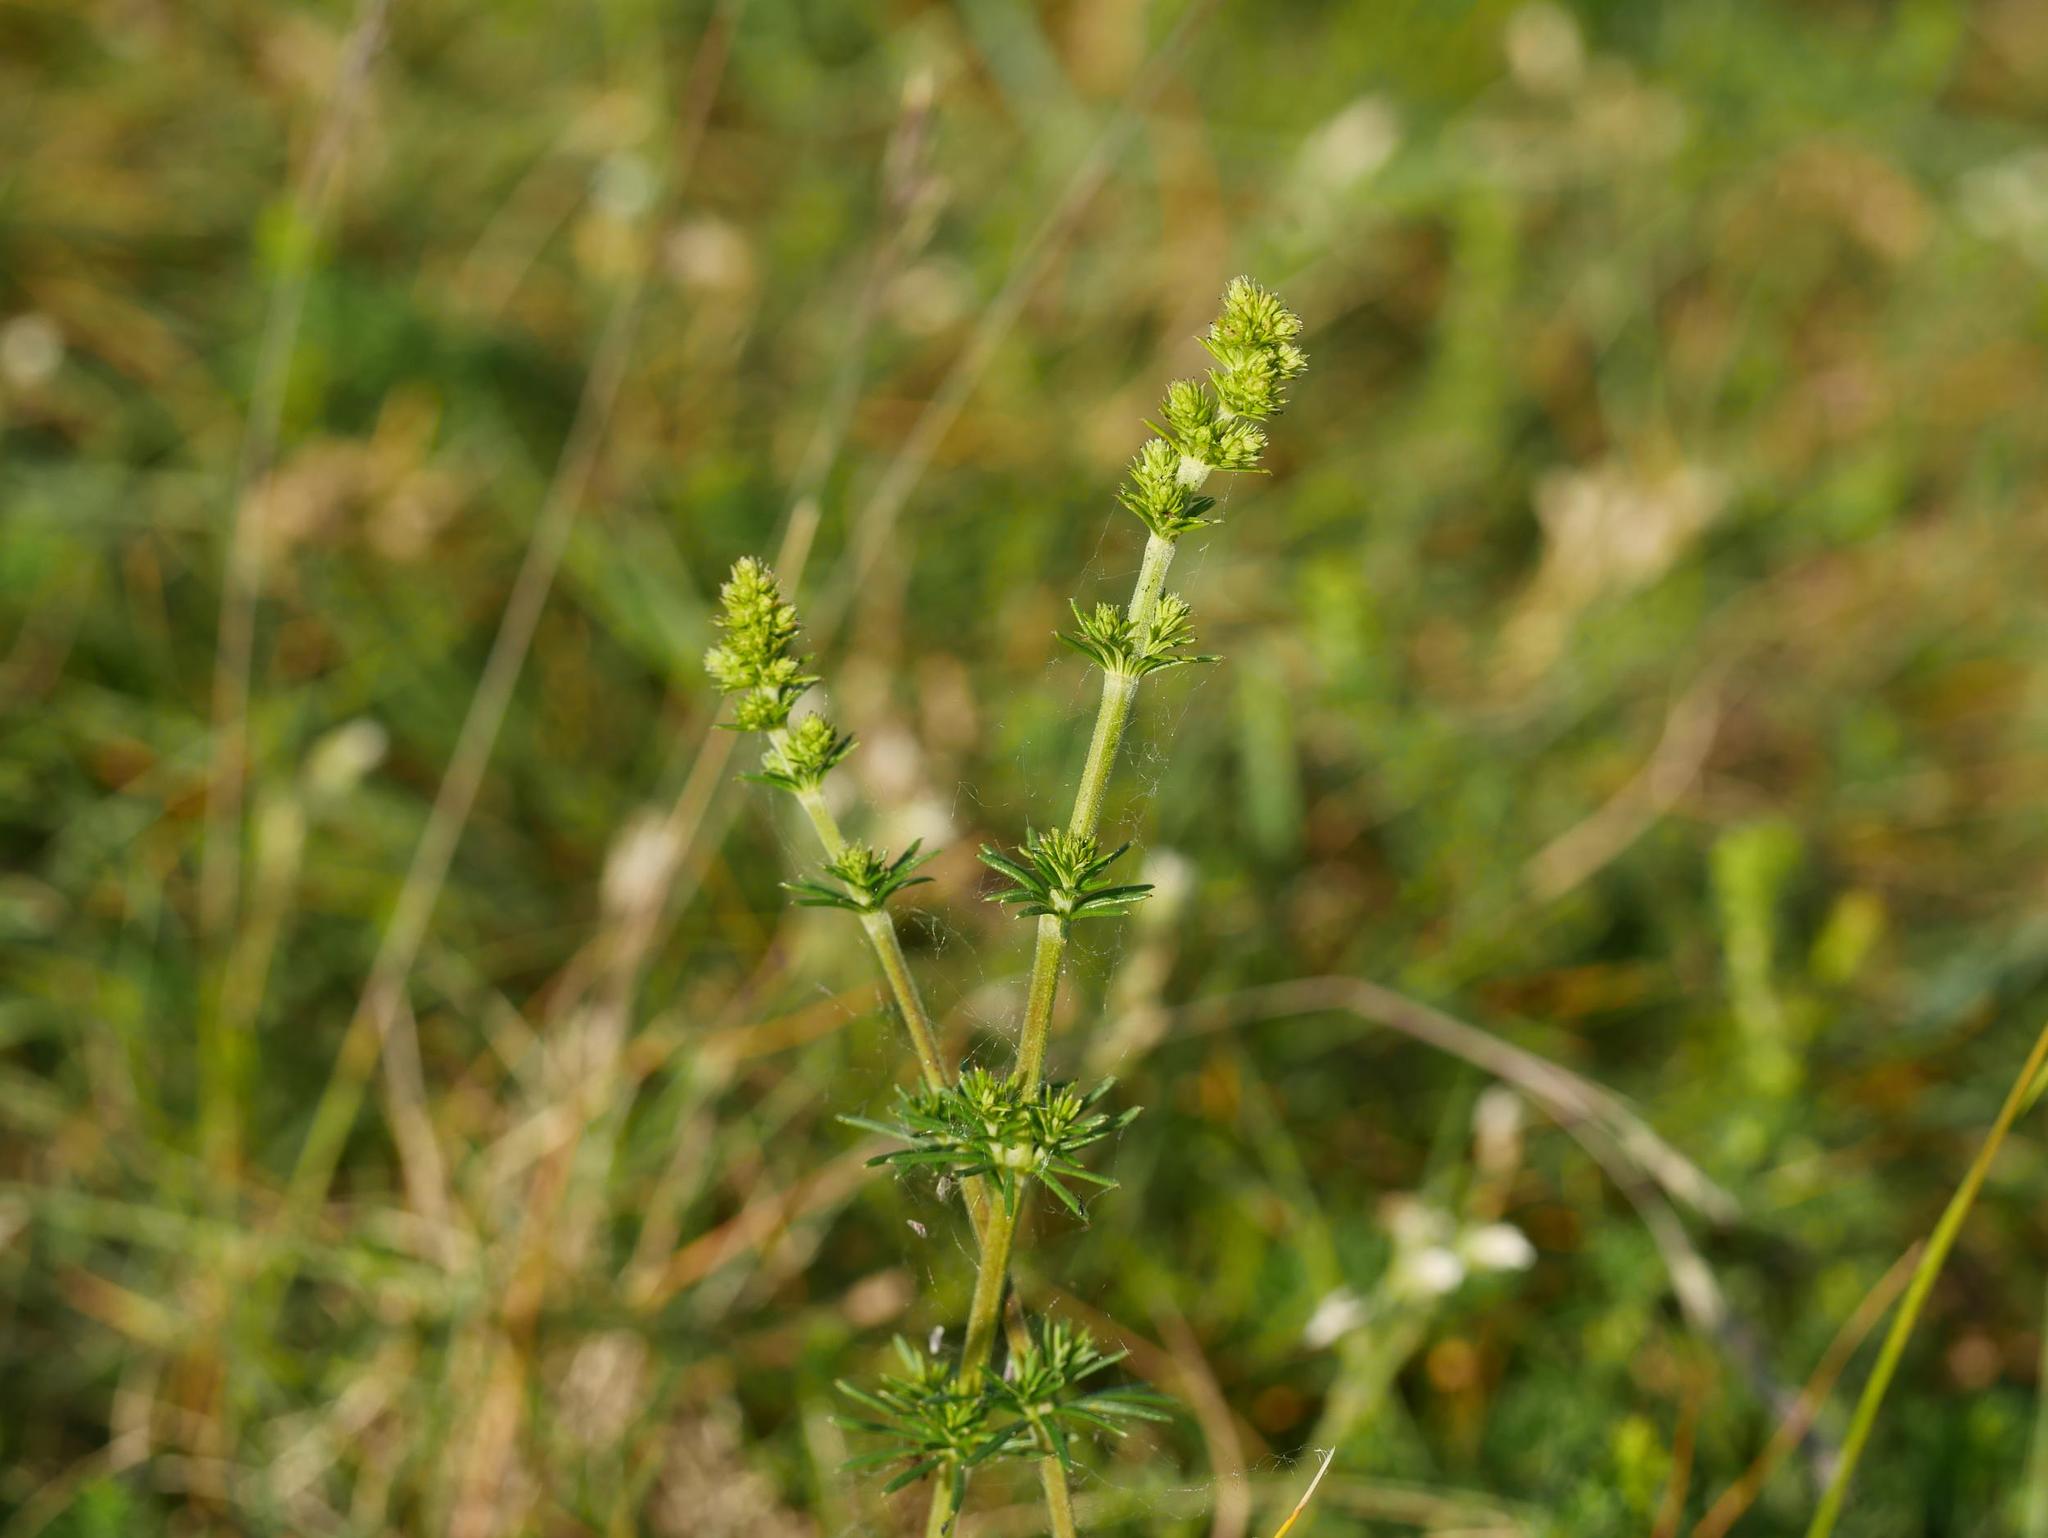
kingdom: Plantae
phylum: Tracheophyta
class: Magnoliopsida
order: Gentianales
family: Rubiaceae
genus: Galium
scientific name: Galium verum
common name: Lady's bedstraw
